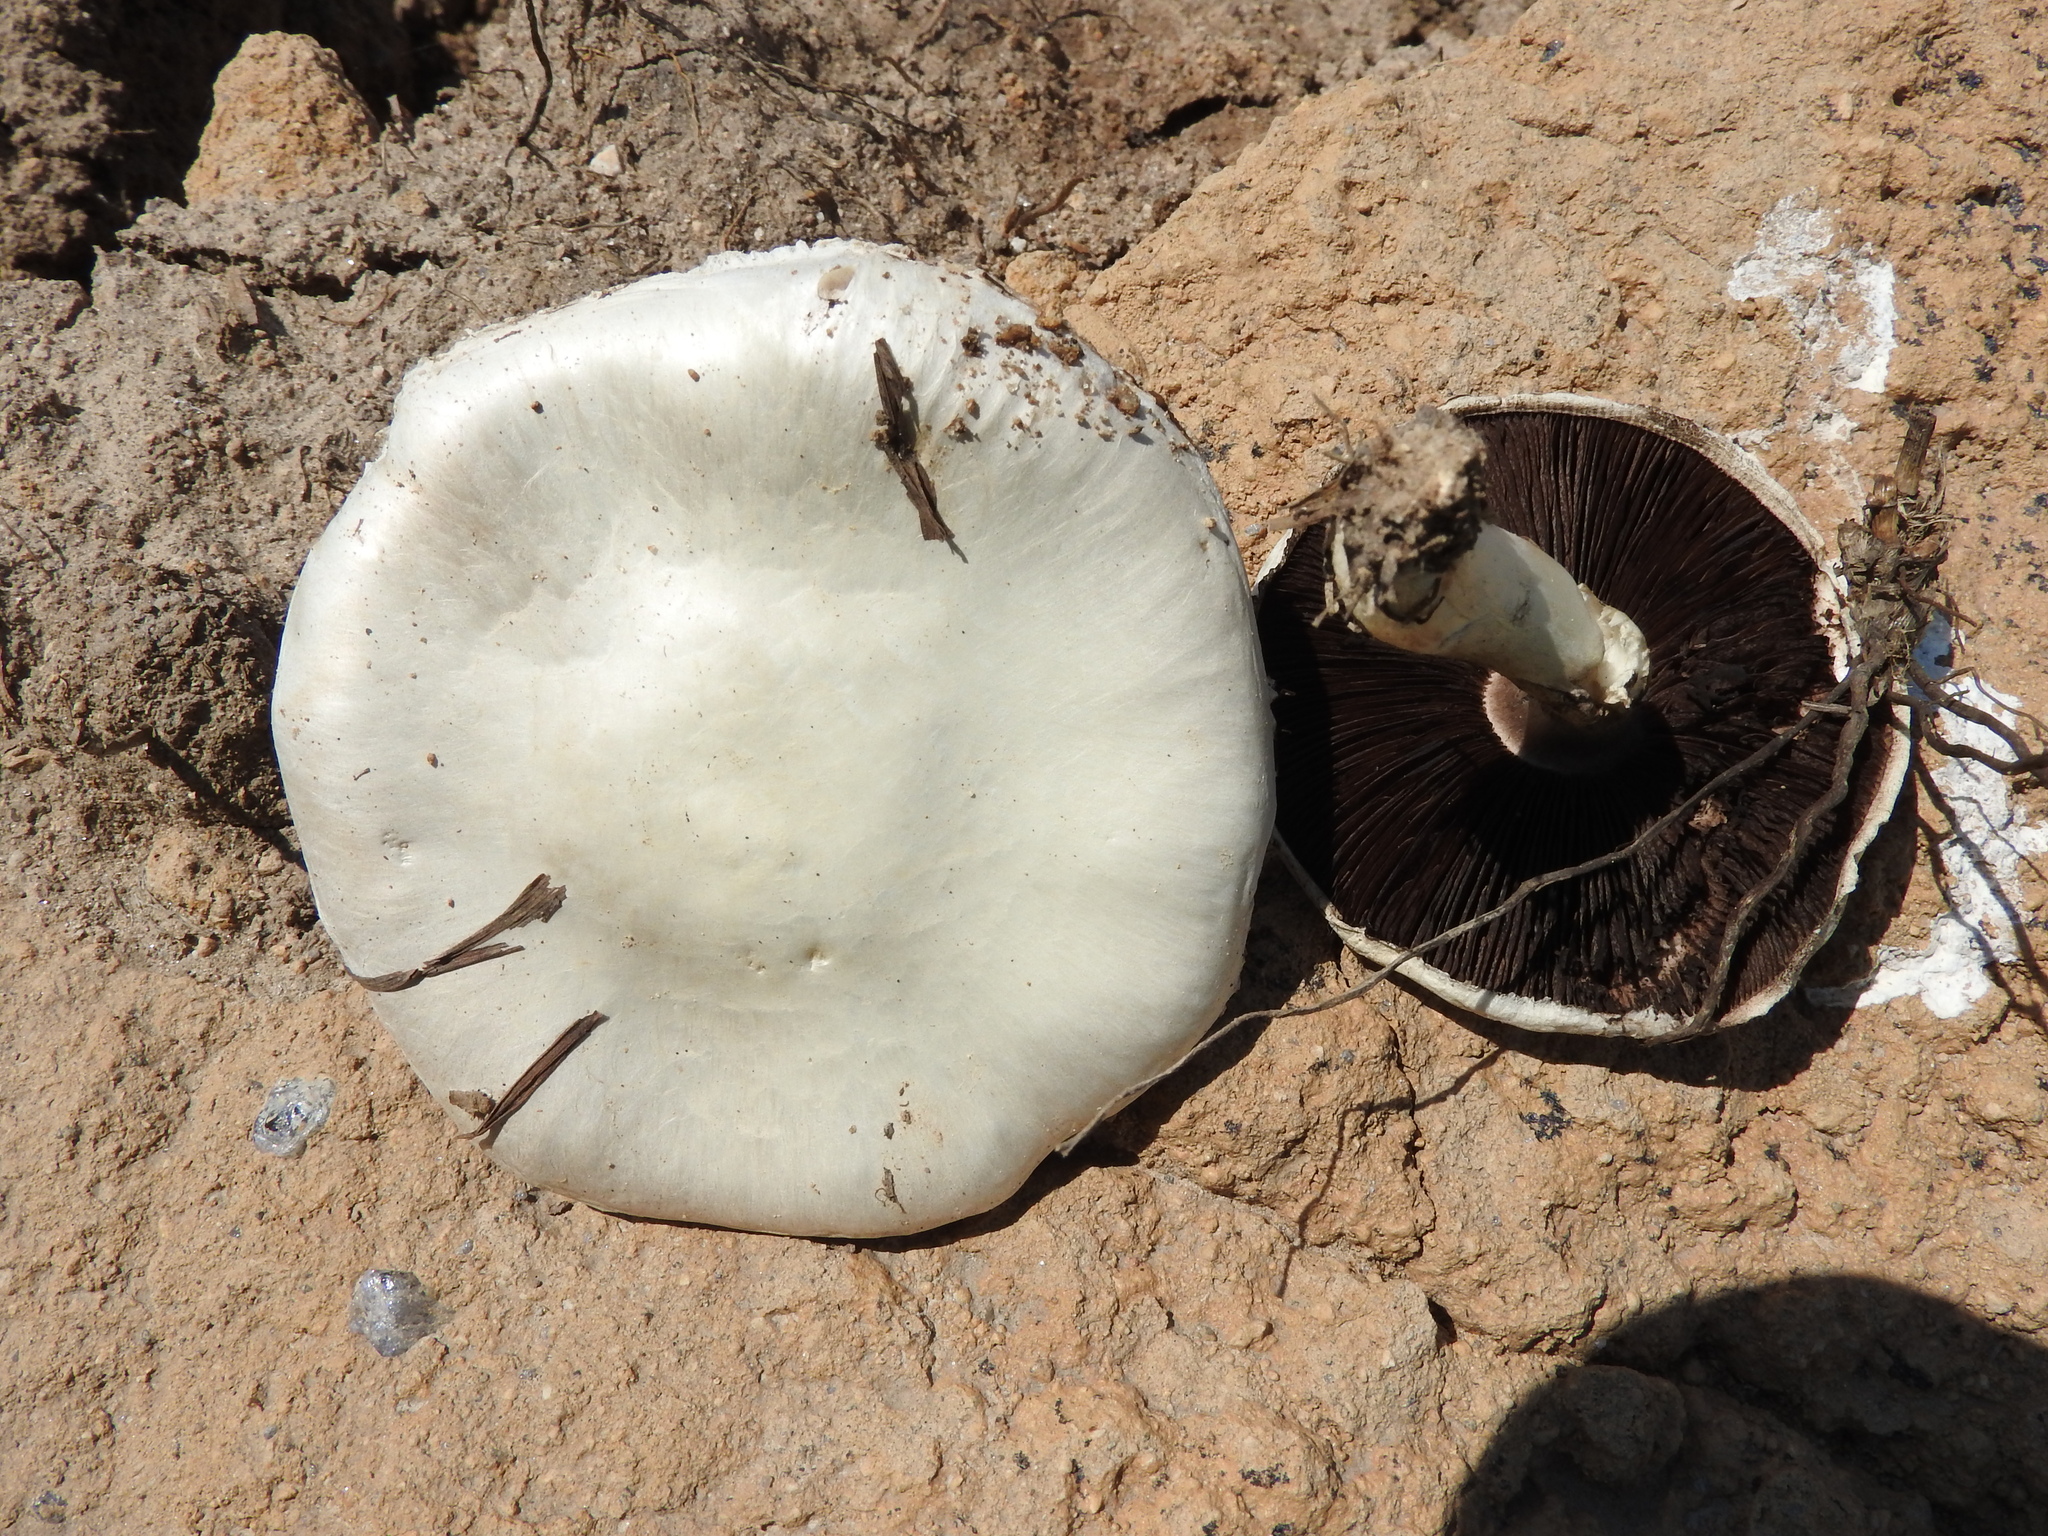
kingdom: Fungi
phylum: Basidiomycota
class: Agaricomycetes
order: Agaricales
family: Agaricaceae
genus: Agaricus
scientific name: Agaricus campestris
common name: Field mushroom
